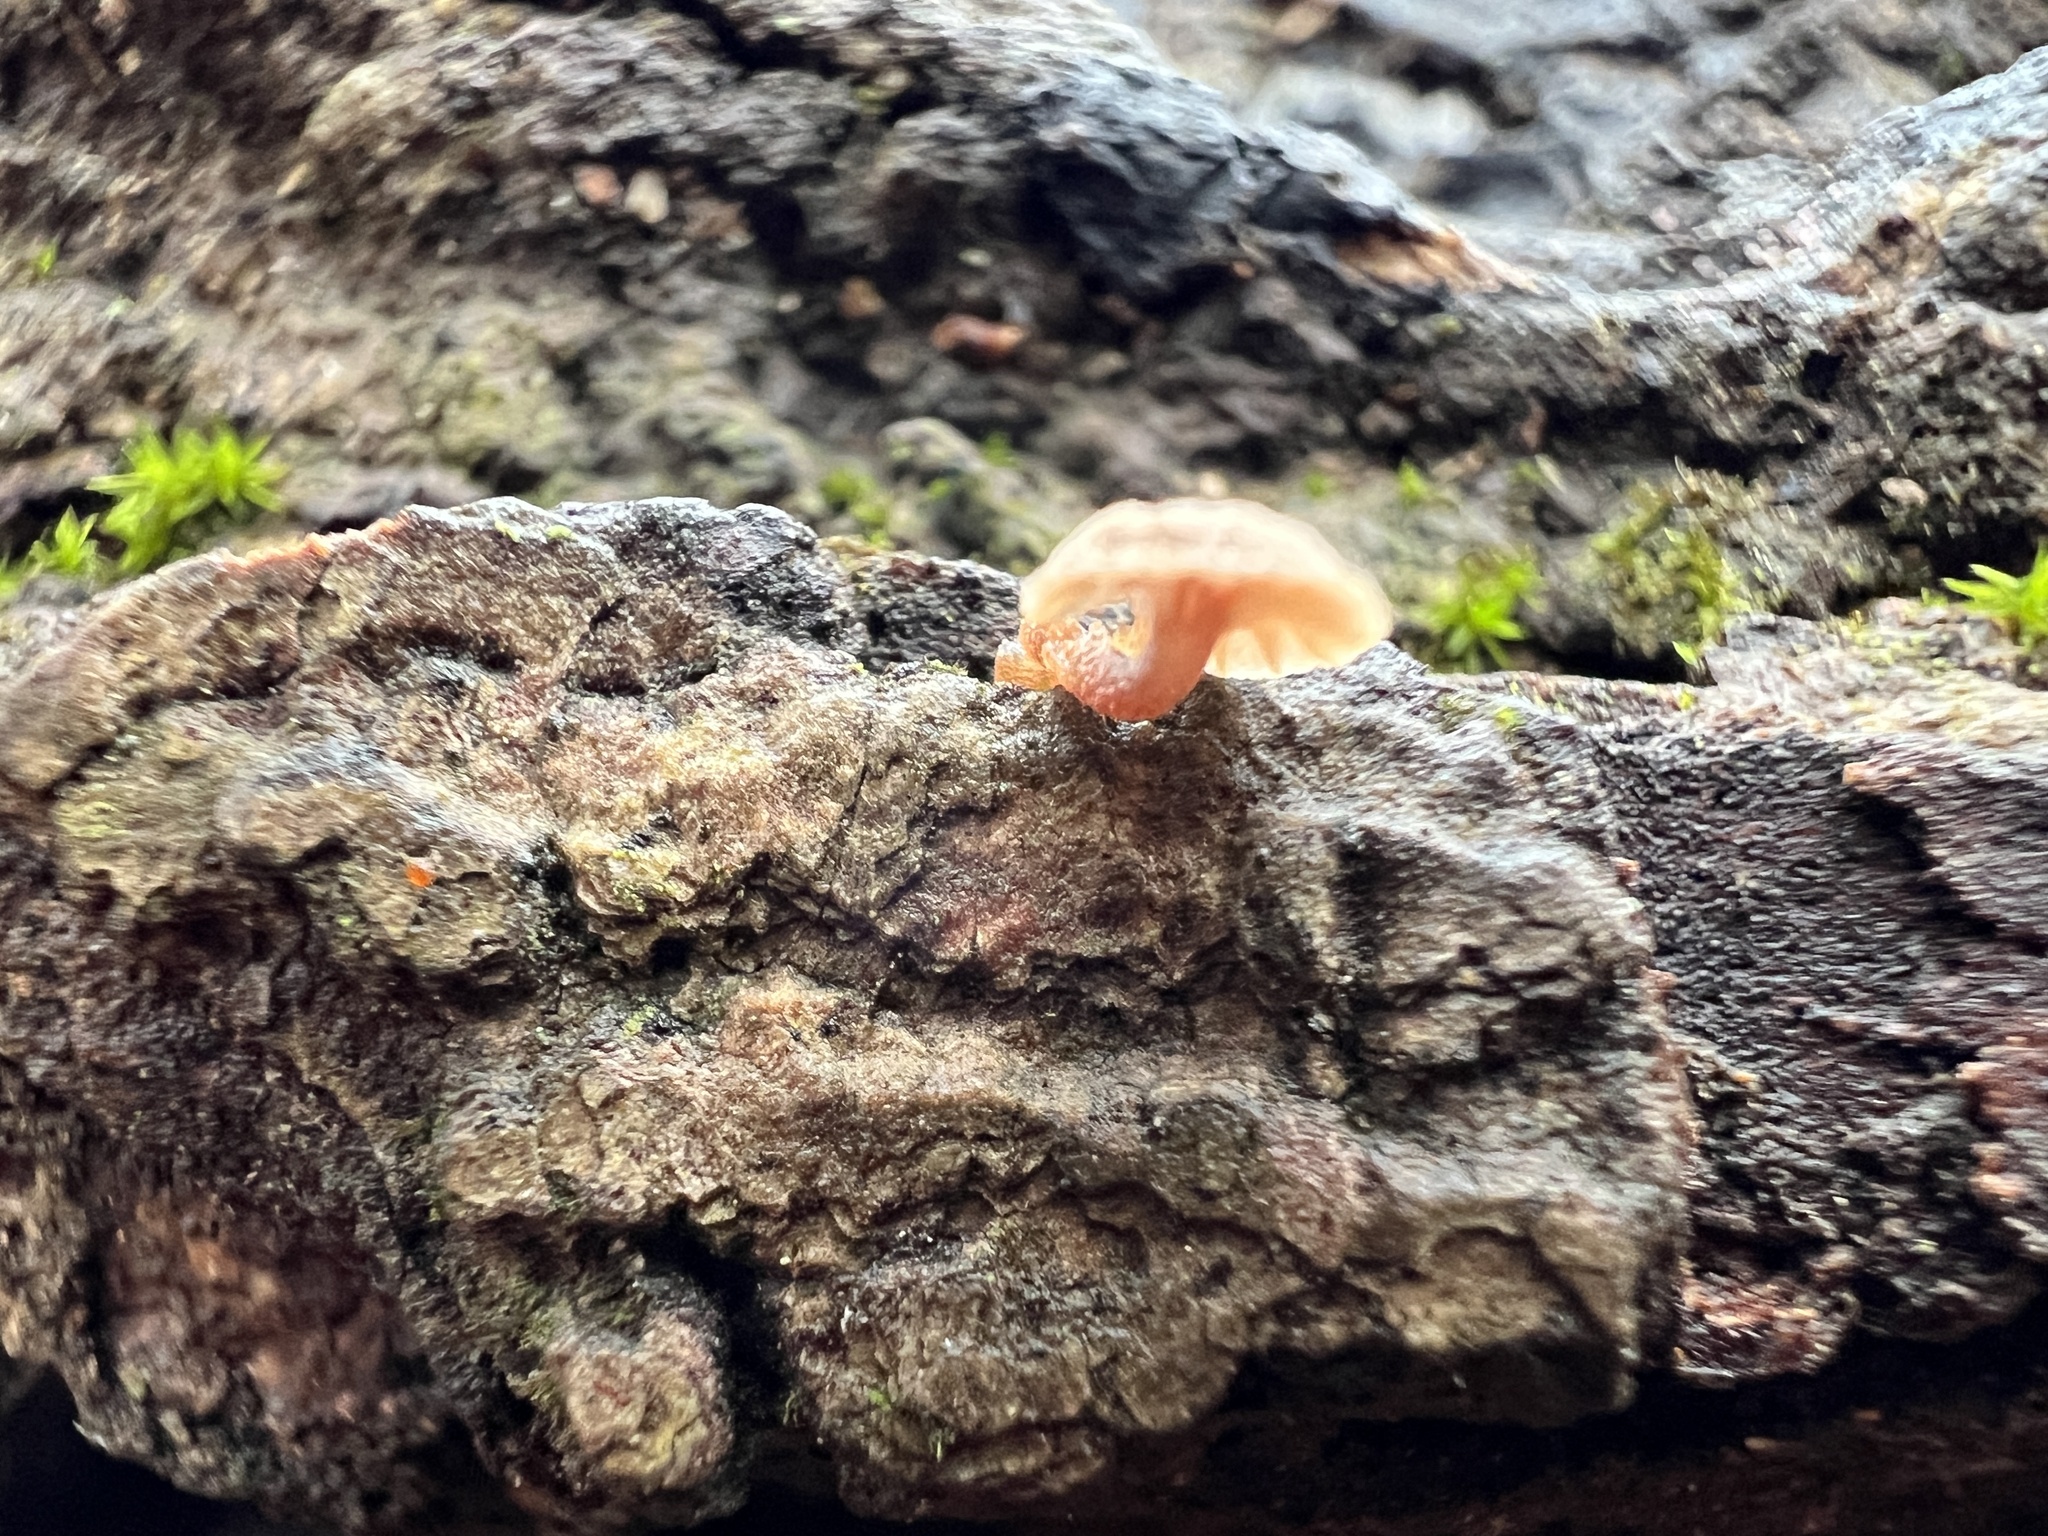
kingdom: Fungi
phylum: Basidiomycota
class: Agaricomycetes
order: Agaricales
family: Mycenaceae
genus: Mycena
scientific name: Mycena meliigena
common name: Mauve bonnet
